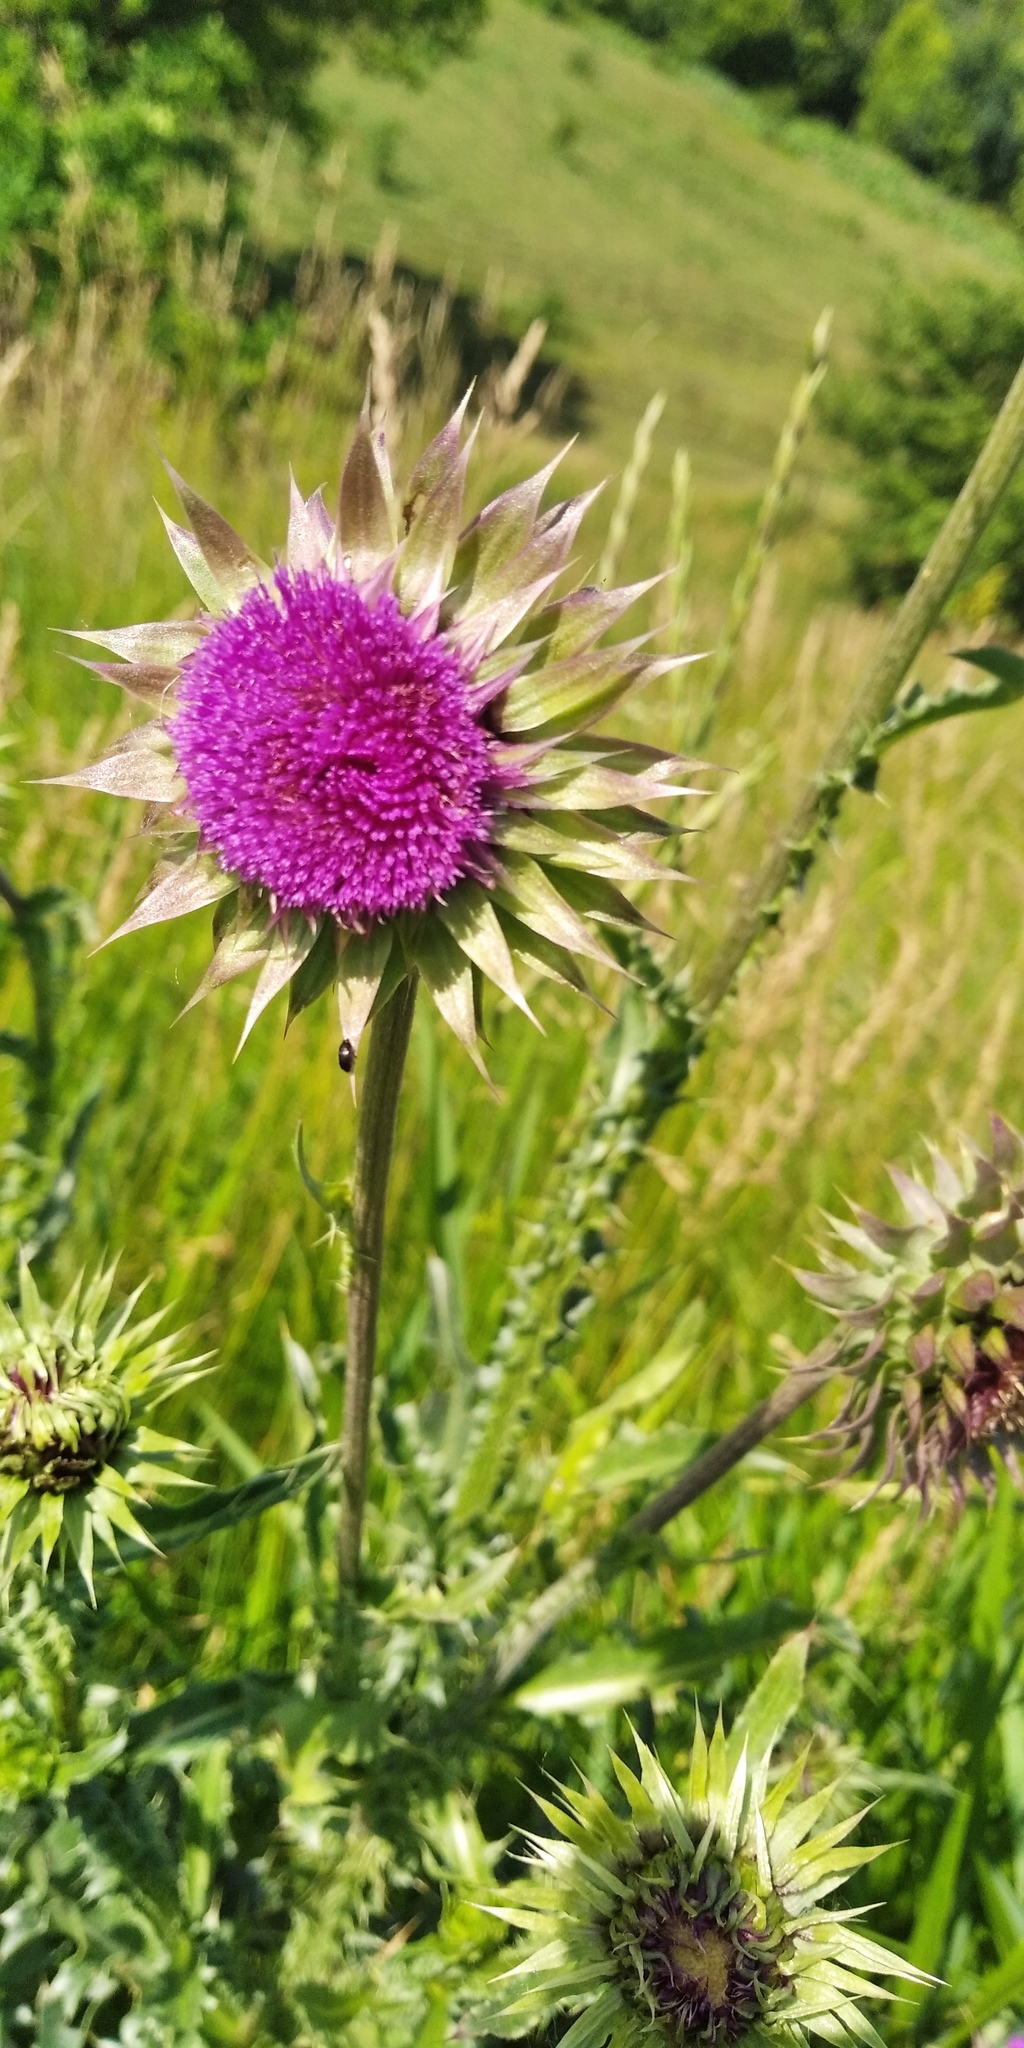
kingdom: Plantae
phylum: Tracheophyta
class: Magnoliopsida
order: Asterales
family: Asteraceae
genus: Carduus
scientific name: Carduus nutans
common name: Musk thistle
